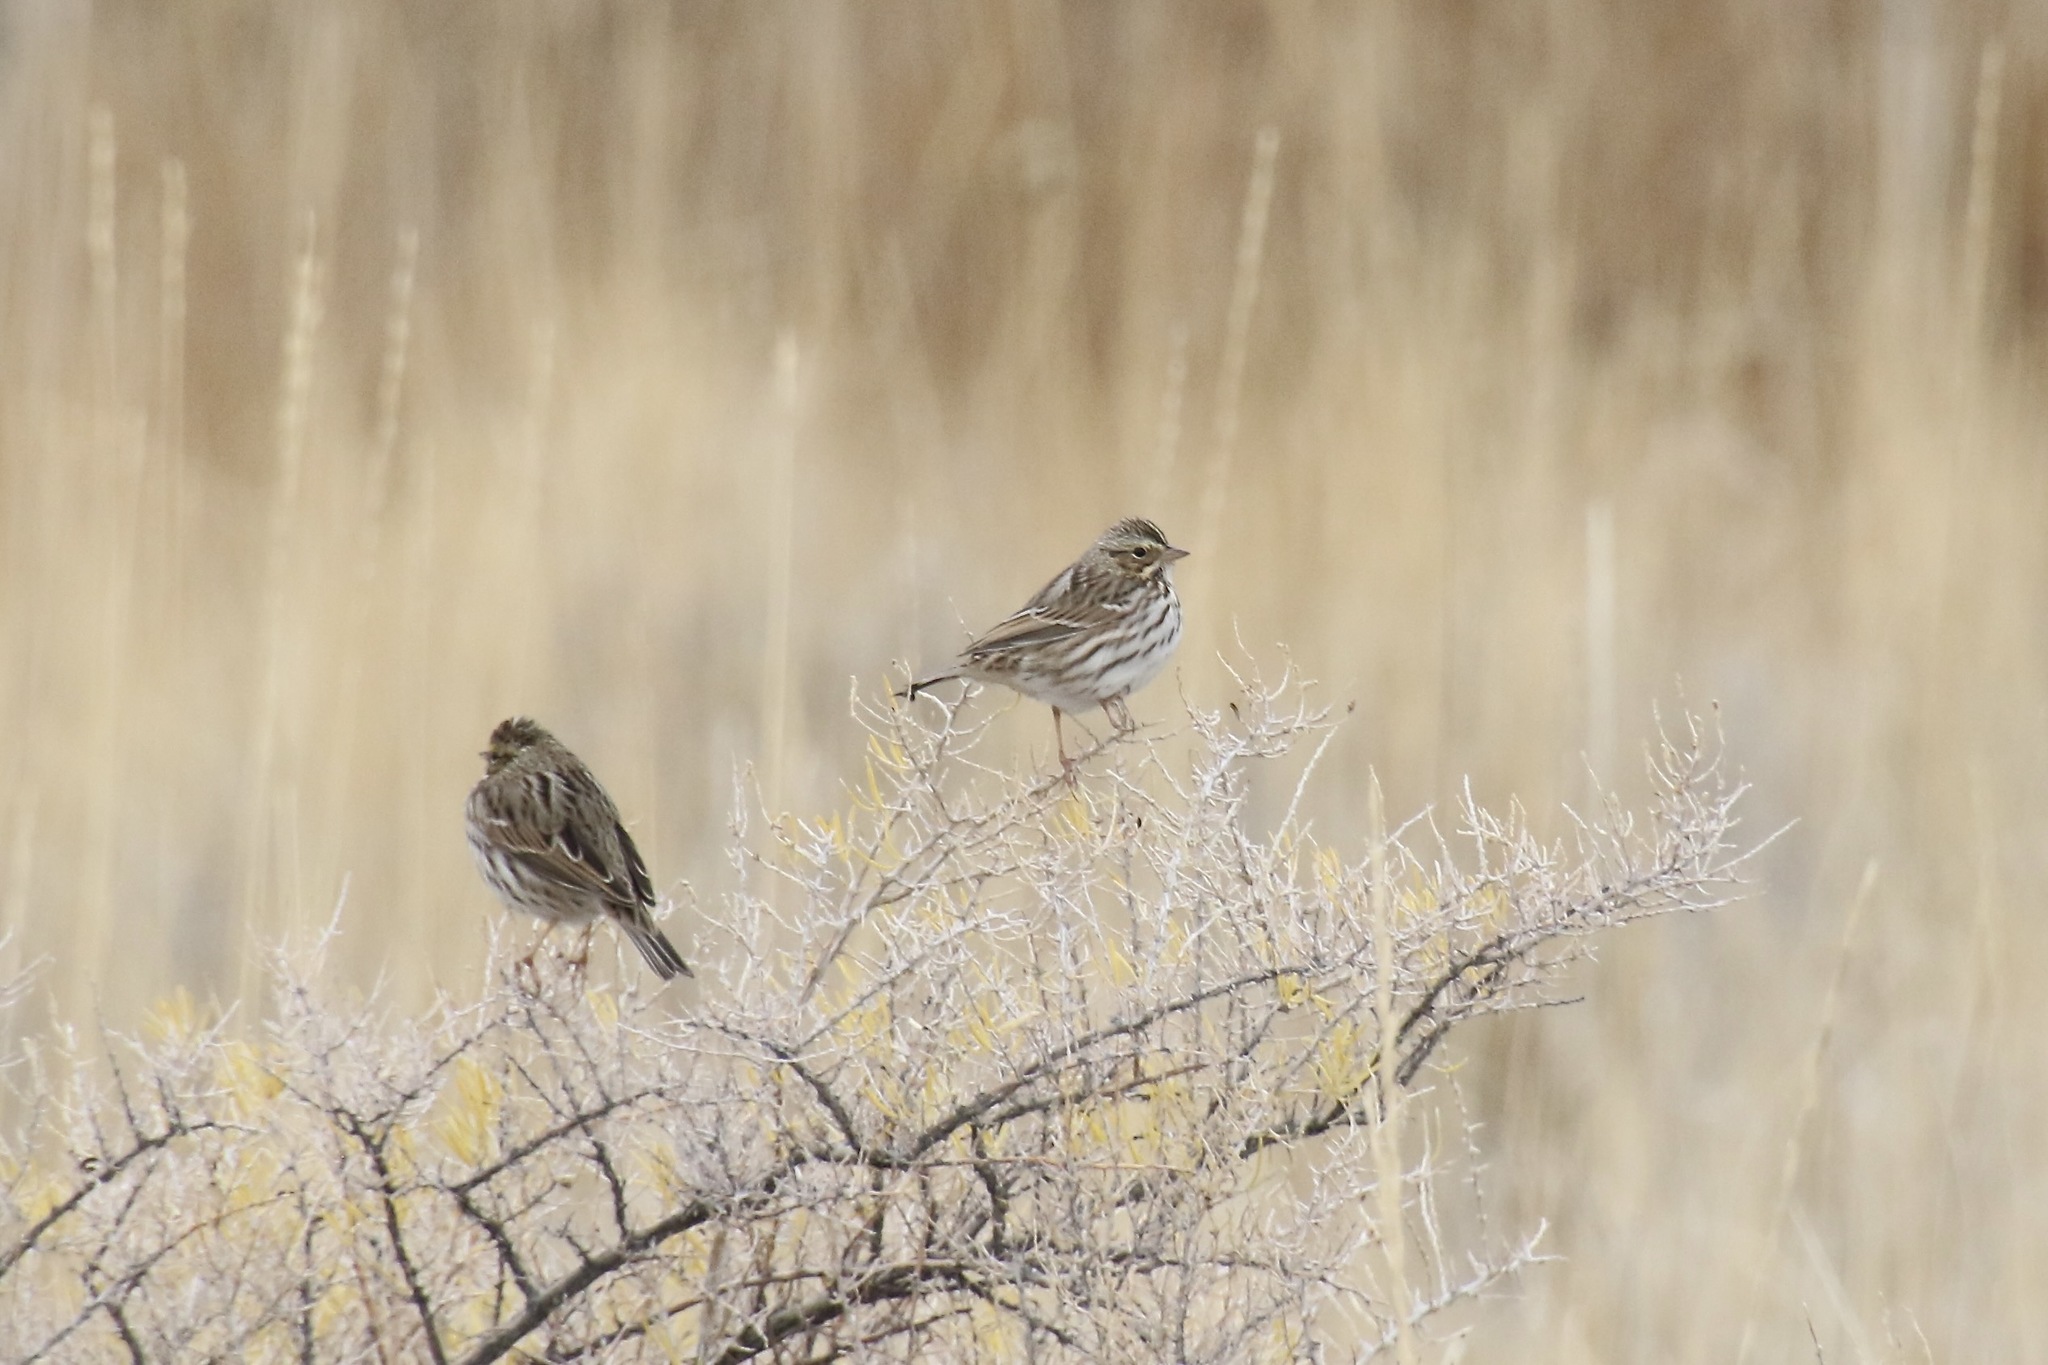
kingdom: Animalia
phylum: Chordata
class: Aves
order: Passeriformes
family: Passerellidae
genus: Passerculus
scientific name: Passerculus sandwichensis
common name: Savannah sparrow
